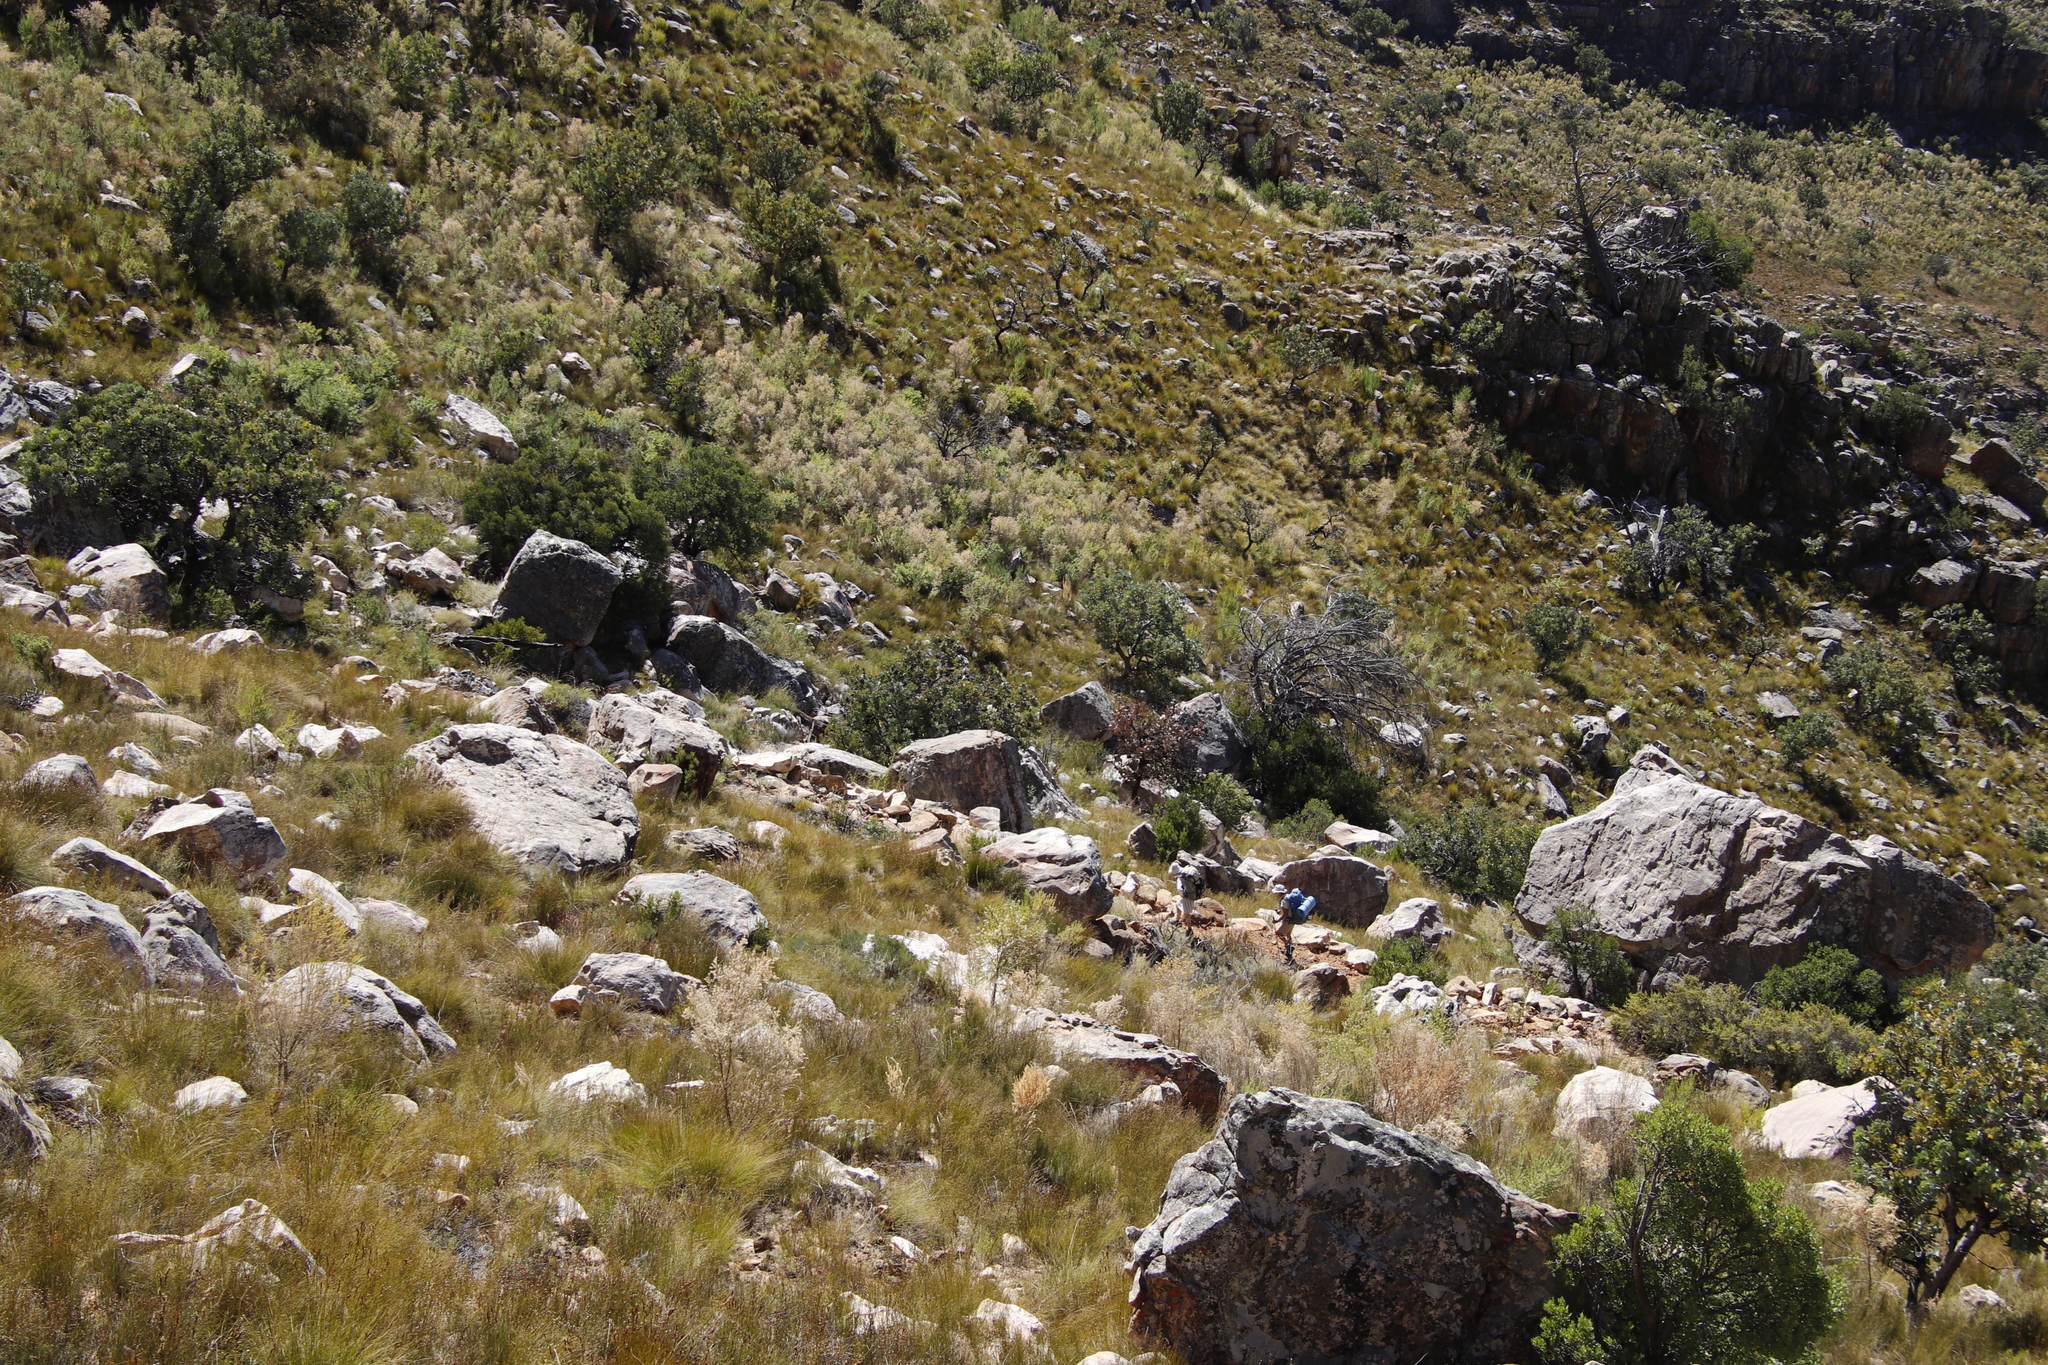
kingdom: Plantae
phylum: Tracheophyta
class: Magnoliopsida
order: Fabales
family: Fabaceae
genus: Aspalathus
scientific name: Aspalathus decora
